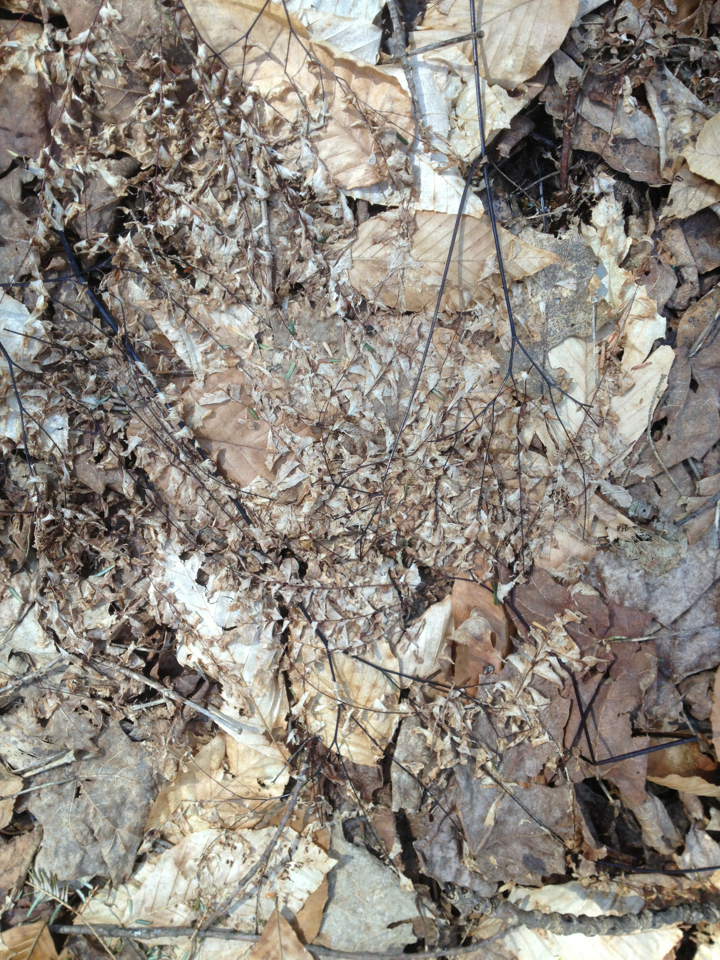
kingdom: Plantae
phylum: Tracheophyta
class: Polypodiopsida
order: Polypodiales
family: Pteridaceae
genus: Adiantum
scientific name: Adiantum pedatum
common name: Five-finger fern
